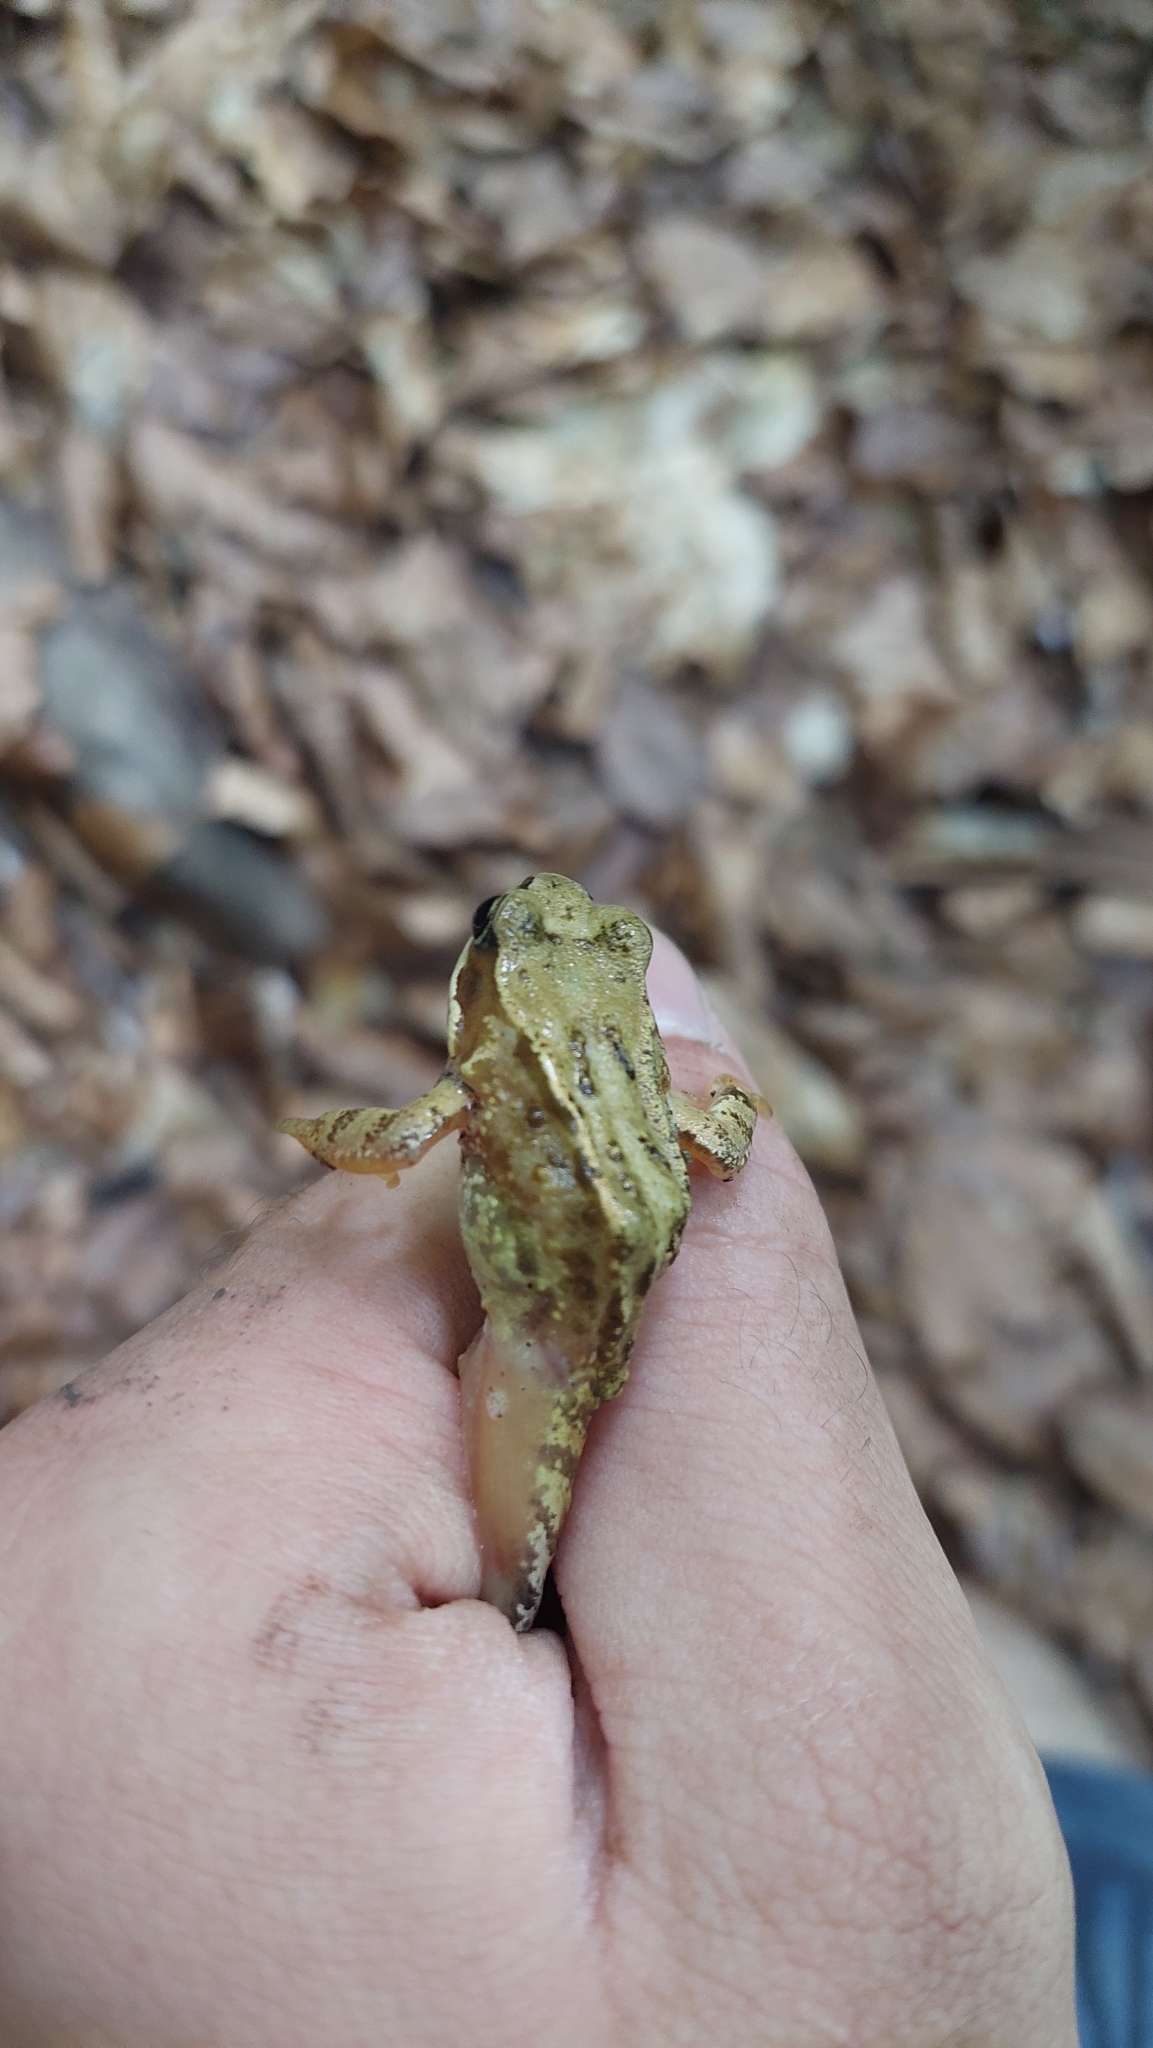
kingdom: Animalia
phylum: Chordata
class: Amphibia
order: Anura
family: Ranidae
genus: Rana
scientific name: Rana temporaria
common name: Common frog
